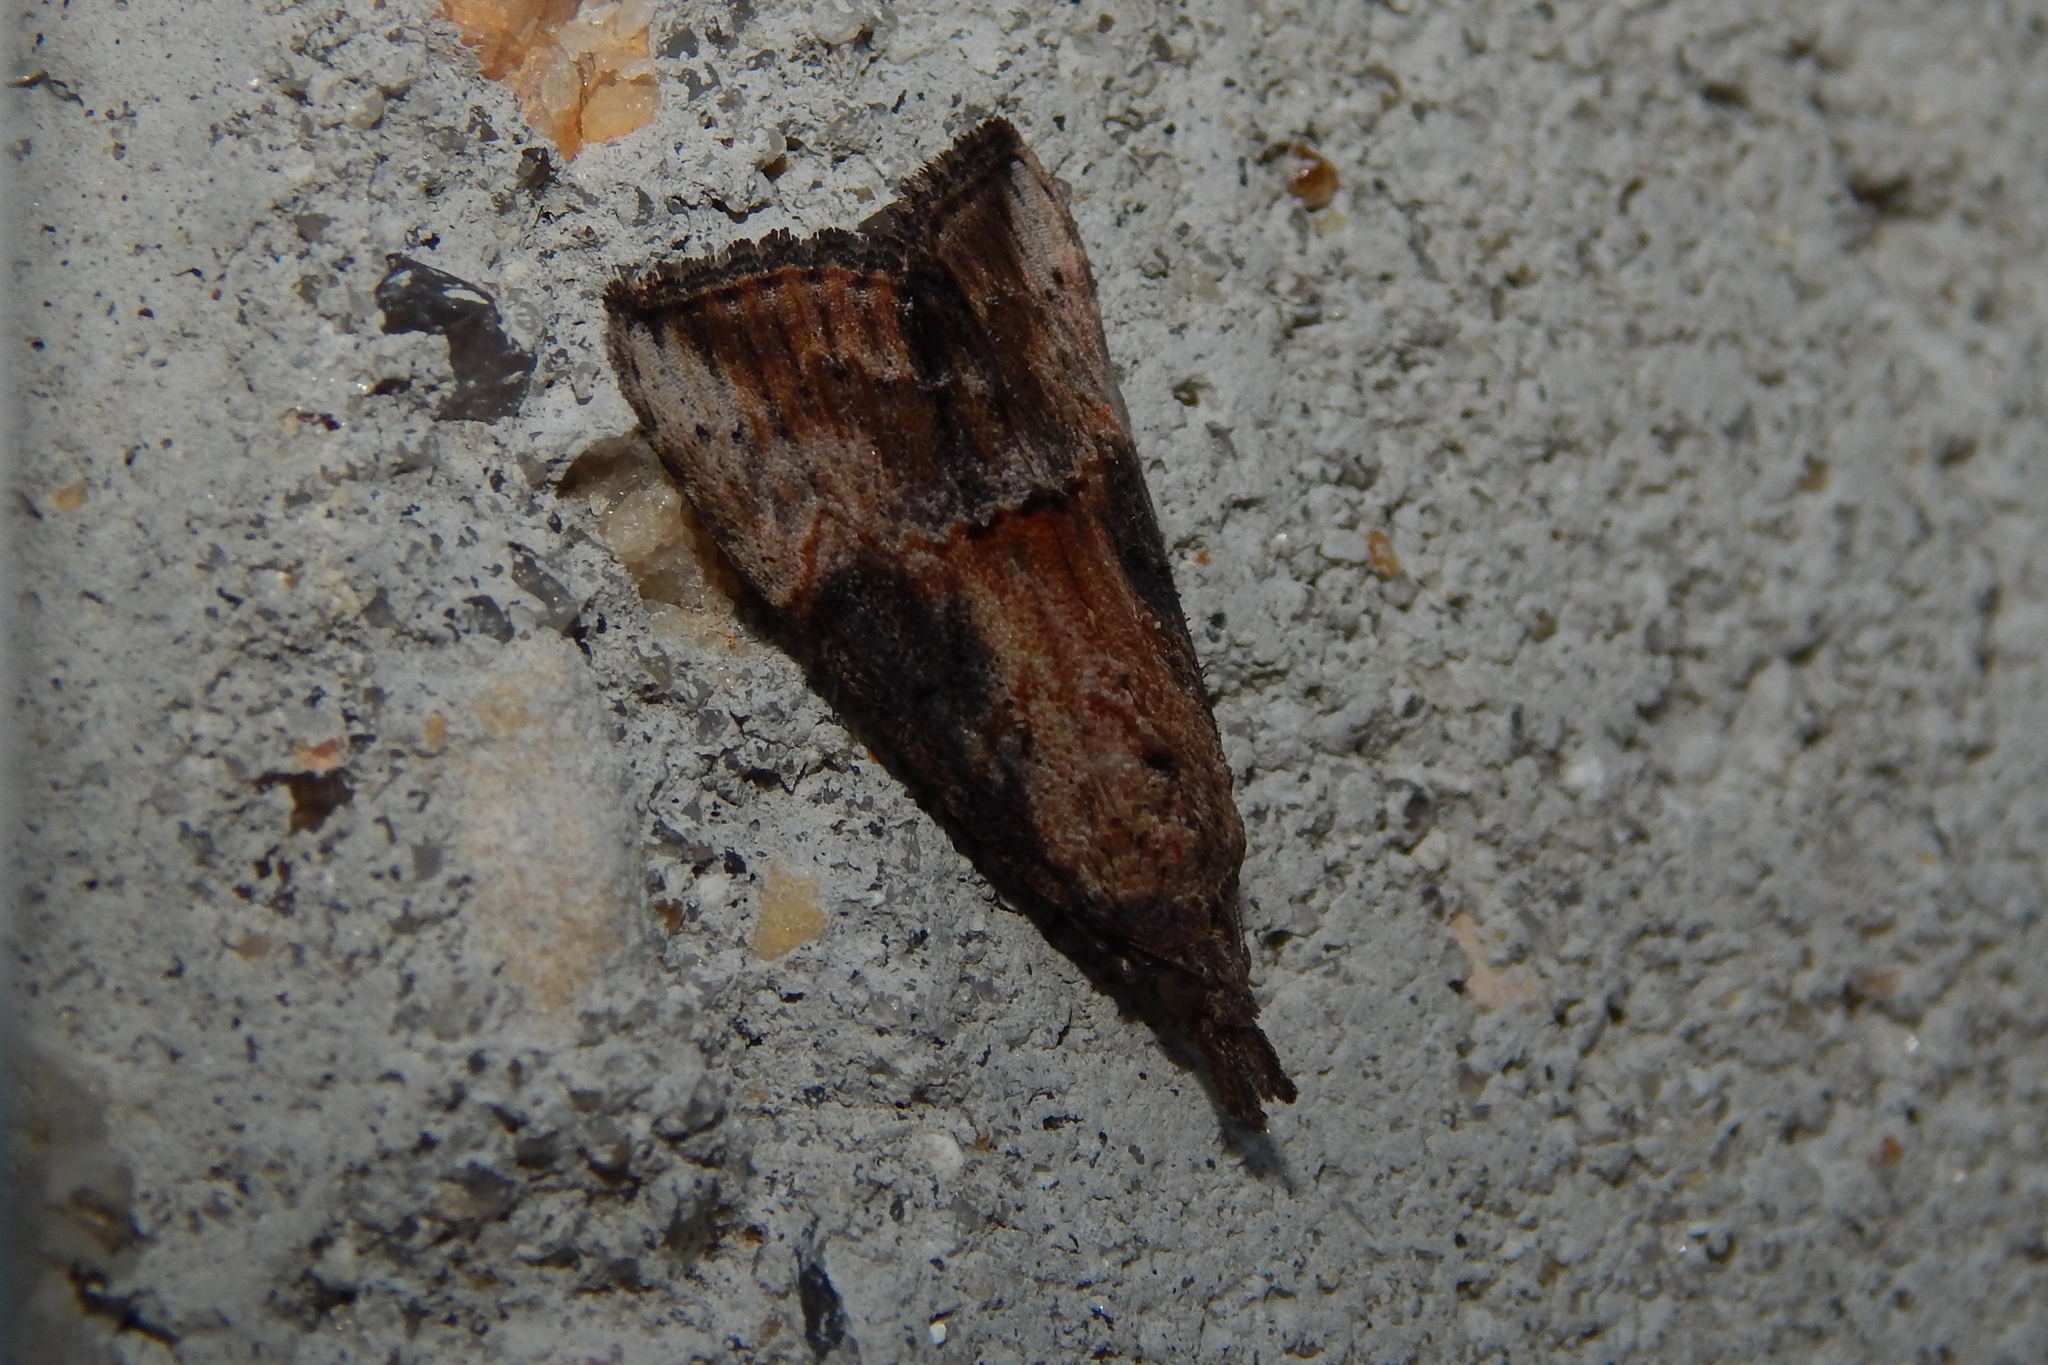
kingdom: Animalia
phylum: Arthropoda
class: Insecta
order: Lepidoptera
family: Erebidae
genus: Hypena
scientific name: Hypena scabra
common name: Green cloverworm
